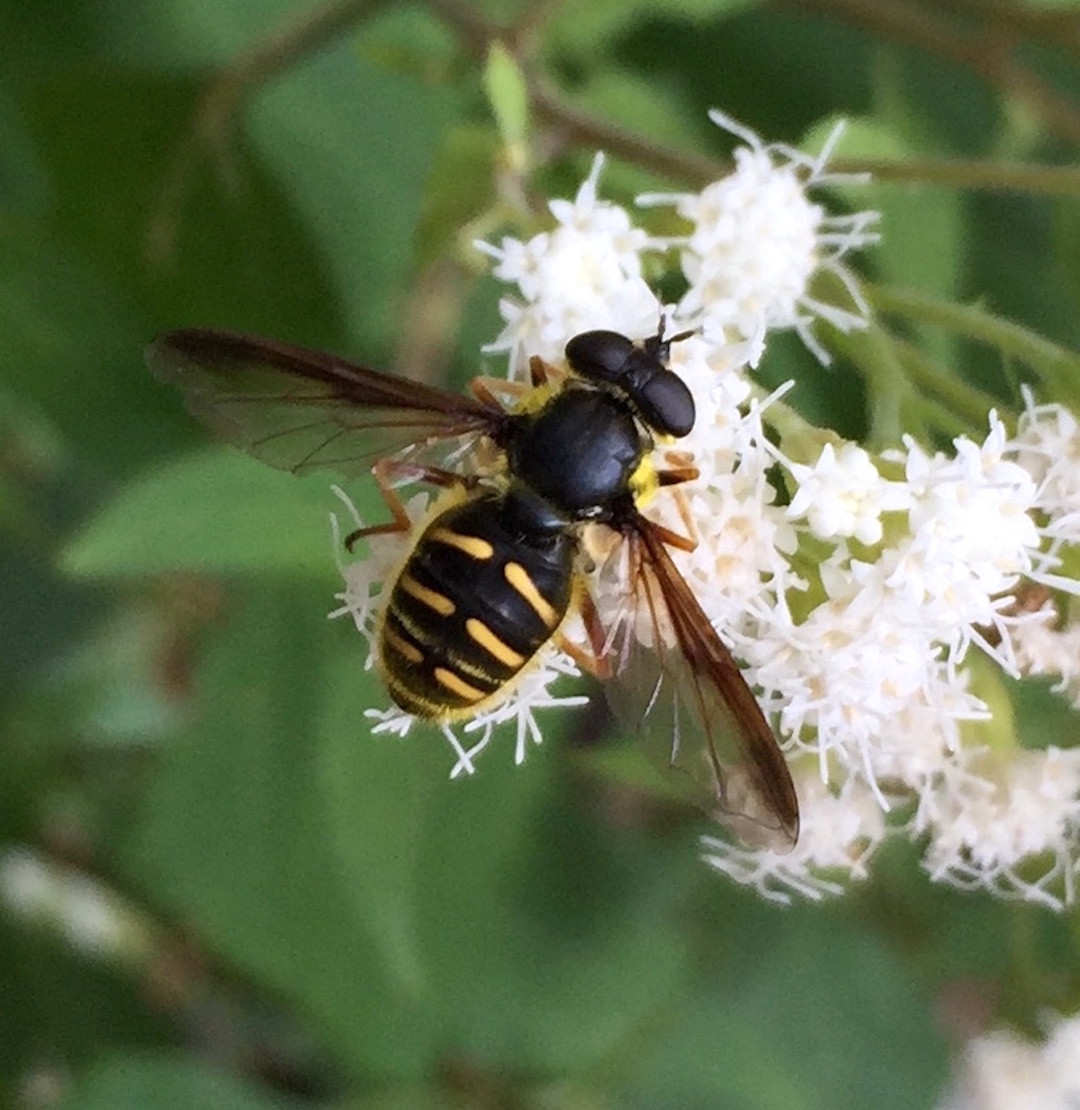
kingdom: Animalia
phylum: Arthropoda
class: Insecta
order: Diptera
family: Syrphidae
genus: Sericomyia
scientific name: Sericomyia chrysotoxoides
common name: Oblique-banded pond fly
